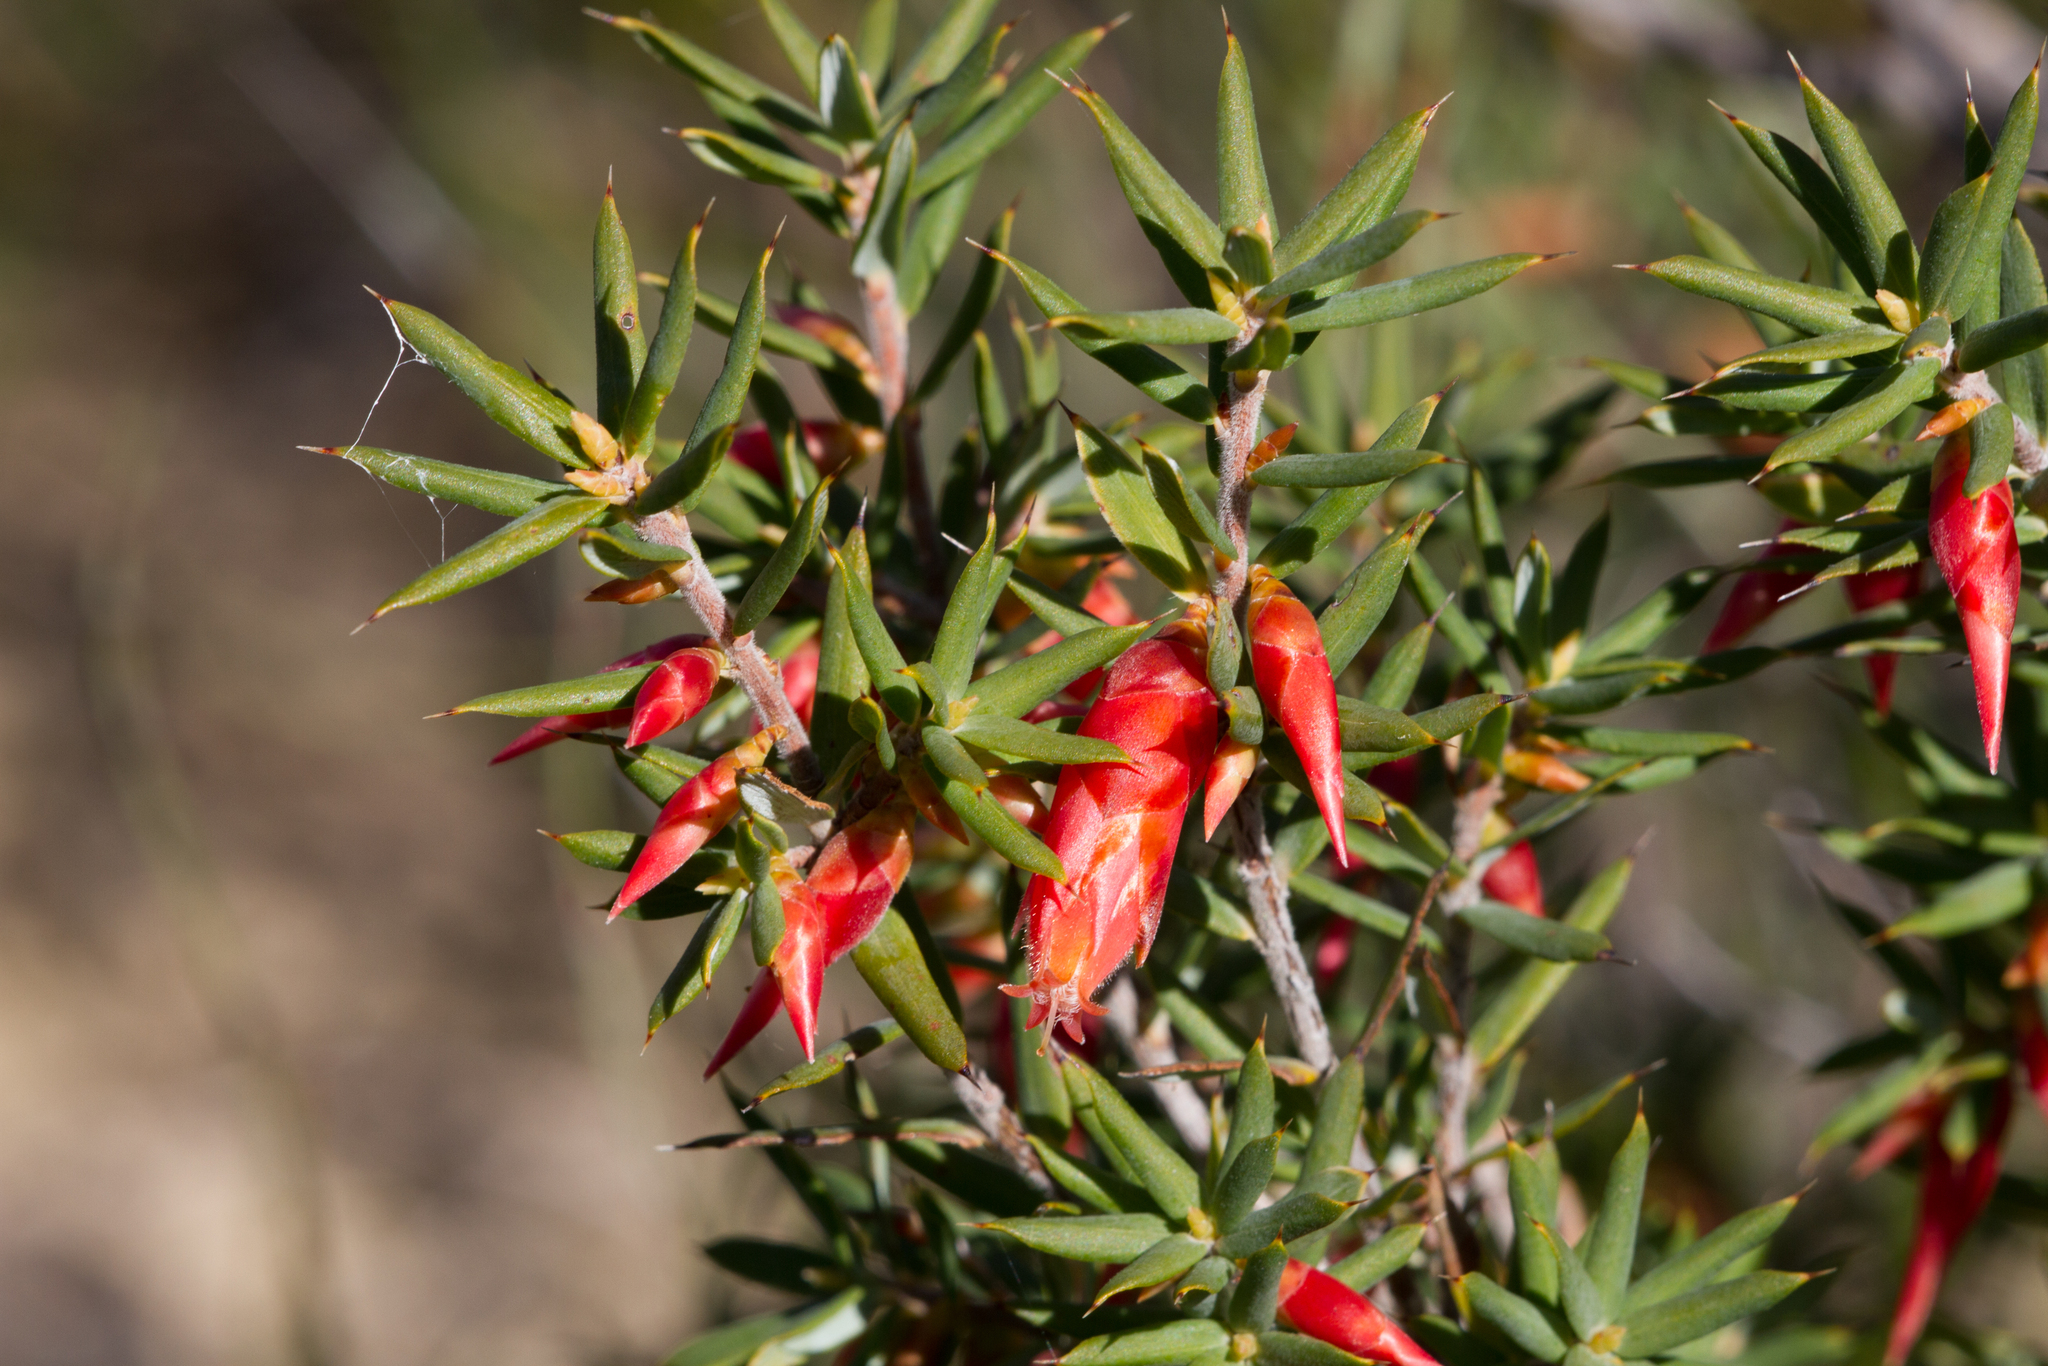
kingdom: Plantae
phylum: Tracheophyta
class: Magnoliopsida
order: Ericales
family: Ericaceae
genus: Stenanthera
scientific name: Stenanthera conostephioides
